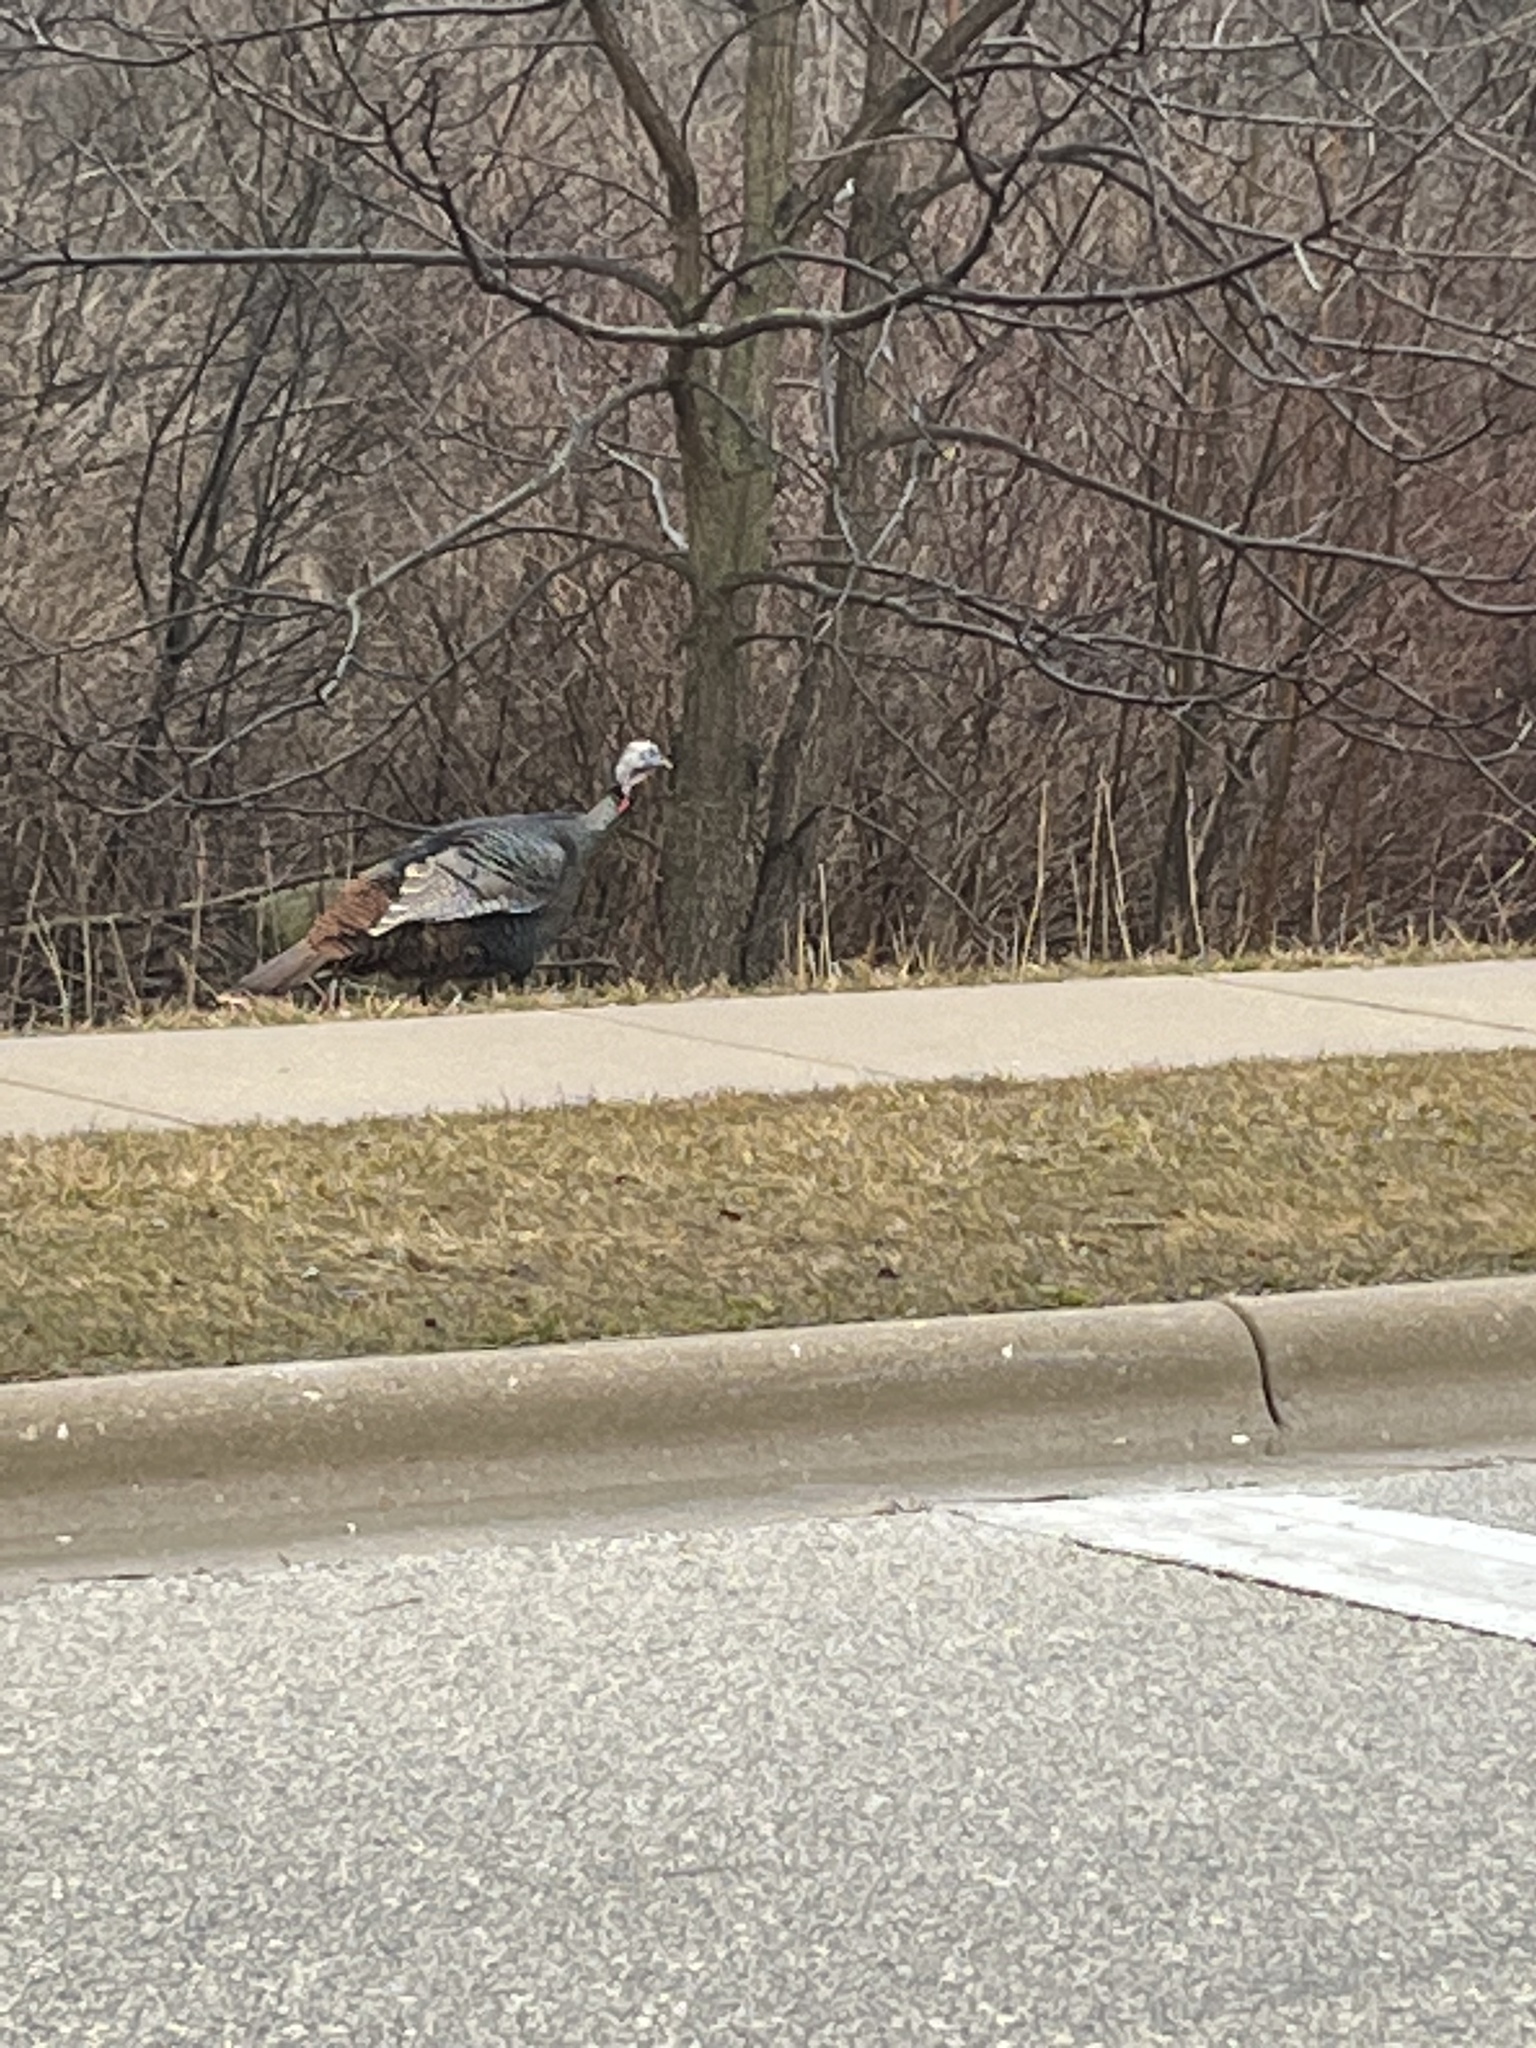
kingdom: Animalia
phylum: Chordata
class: Aves
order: Galliformes
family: Phasianidae
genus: Meleagris
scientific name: Meleagris gallopavo
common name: Wild turkey
